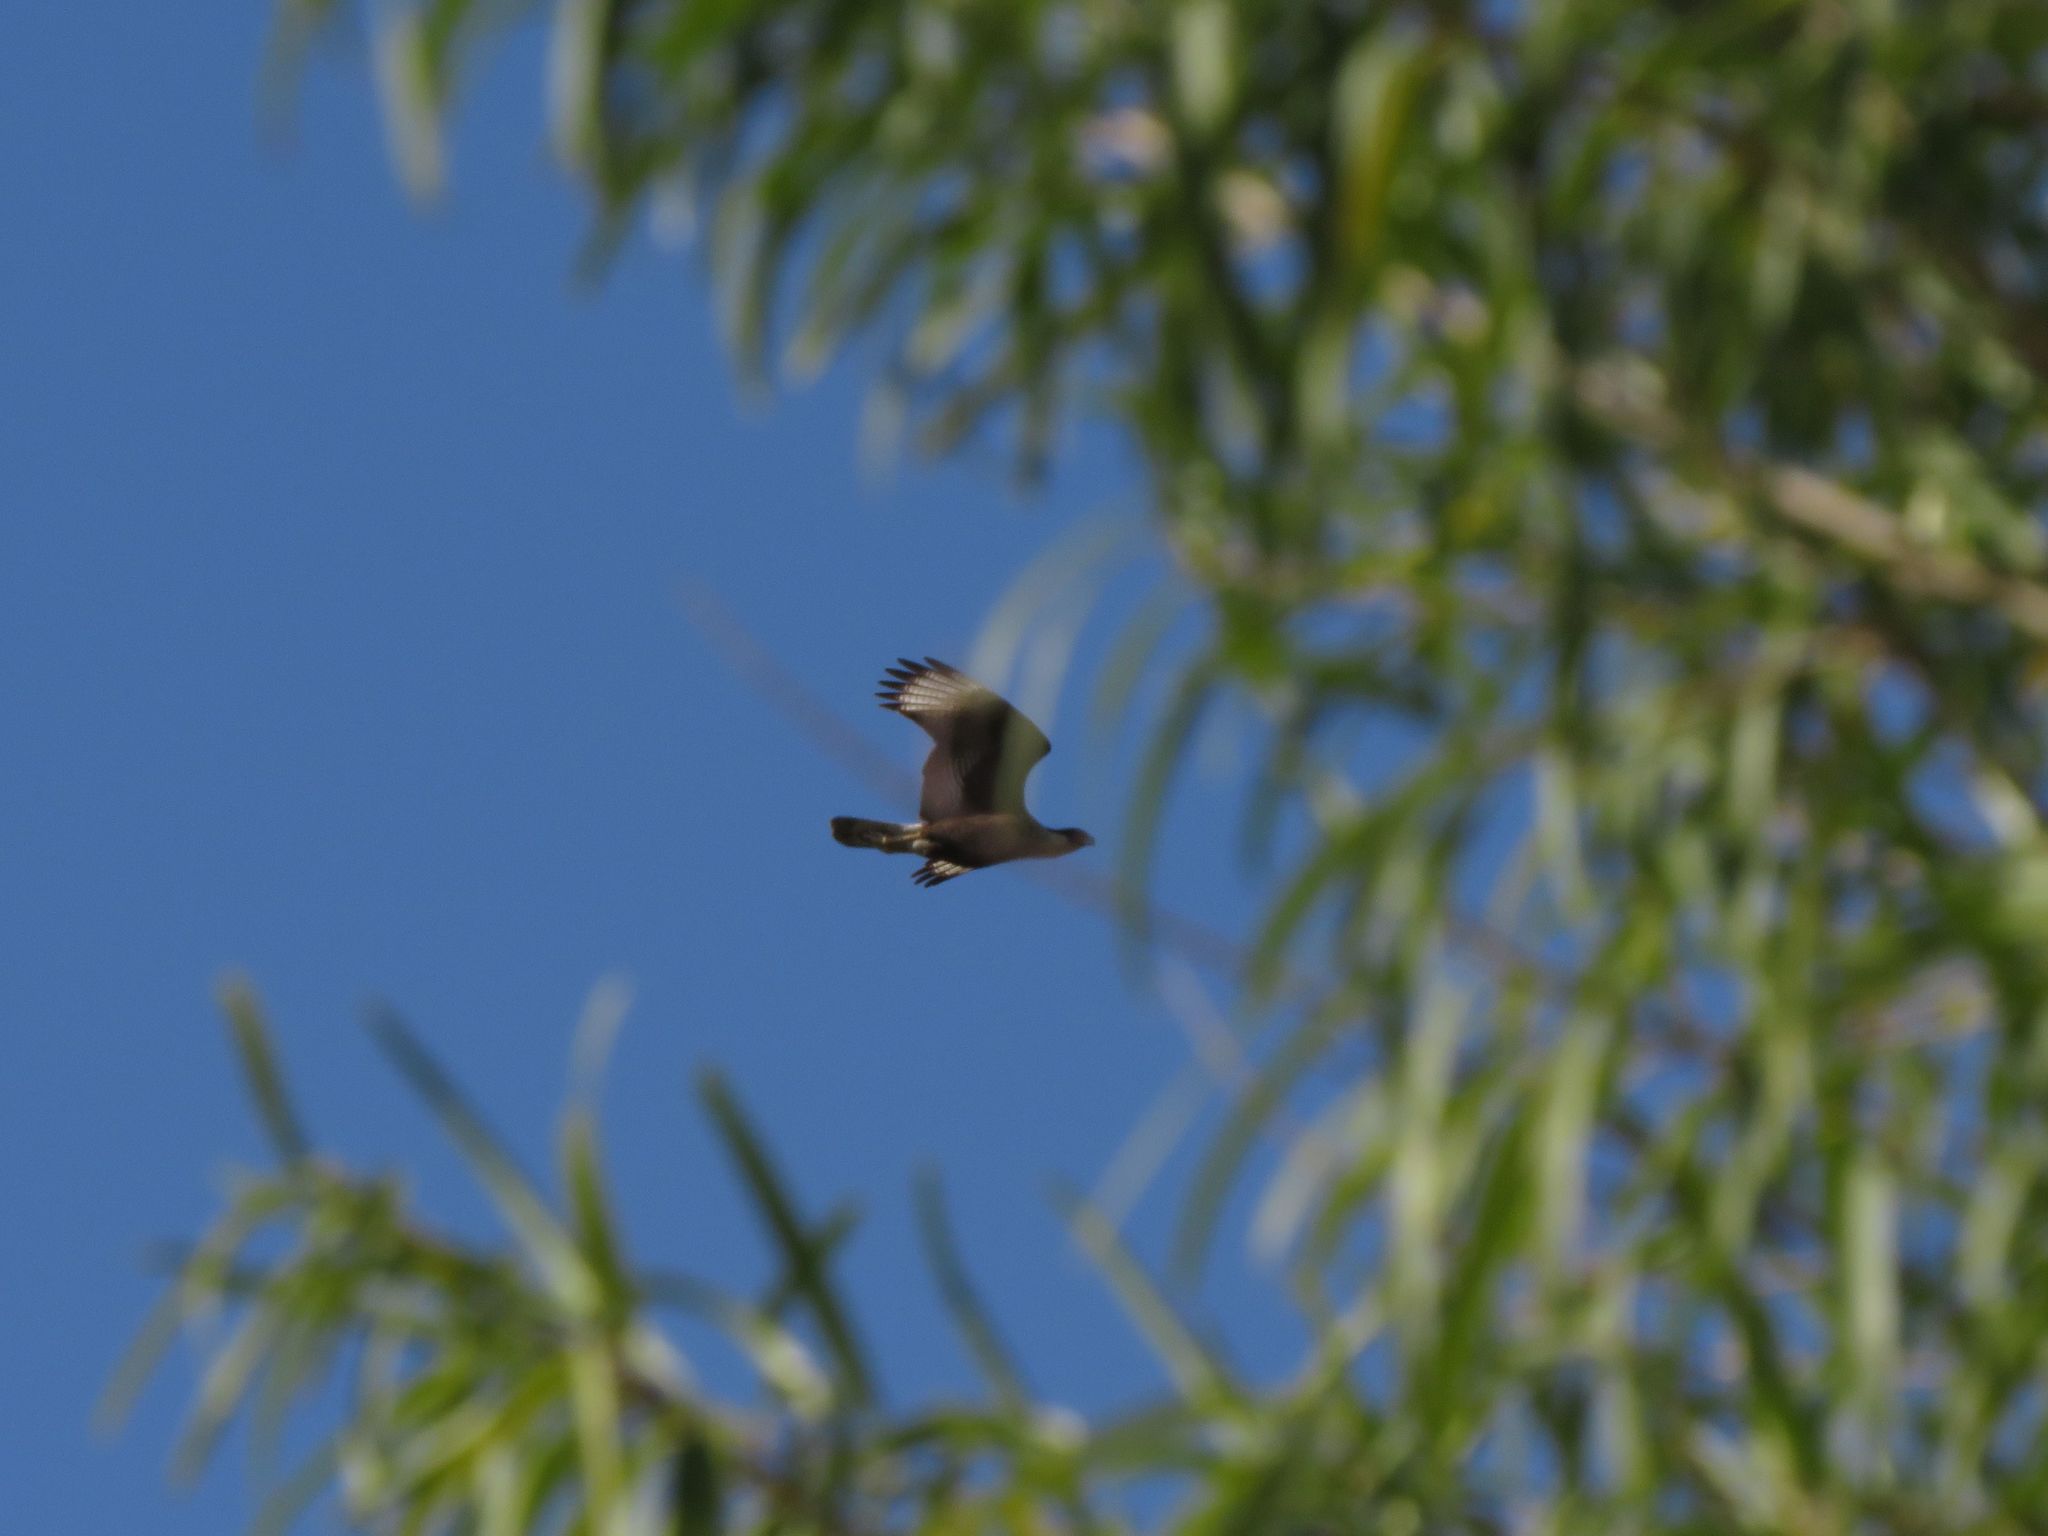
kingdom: Animalia
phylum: Chordata
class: Aves
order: Falconiformes
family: Falconidae
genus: Caracara
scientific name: Caracara plancus
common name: Southern caracara
